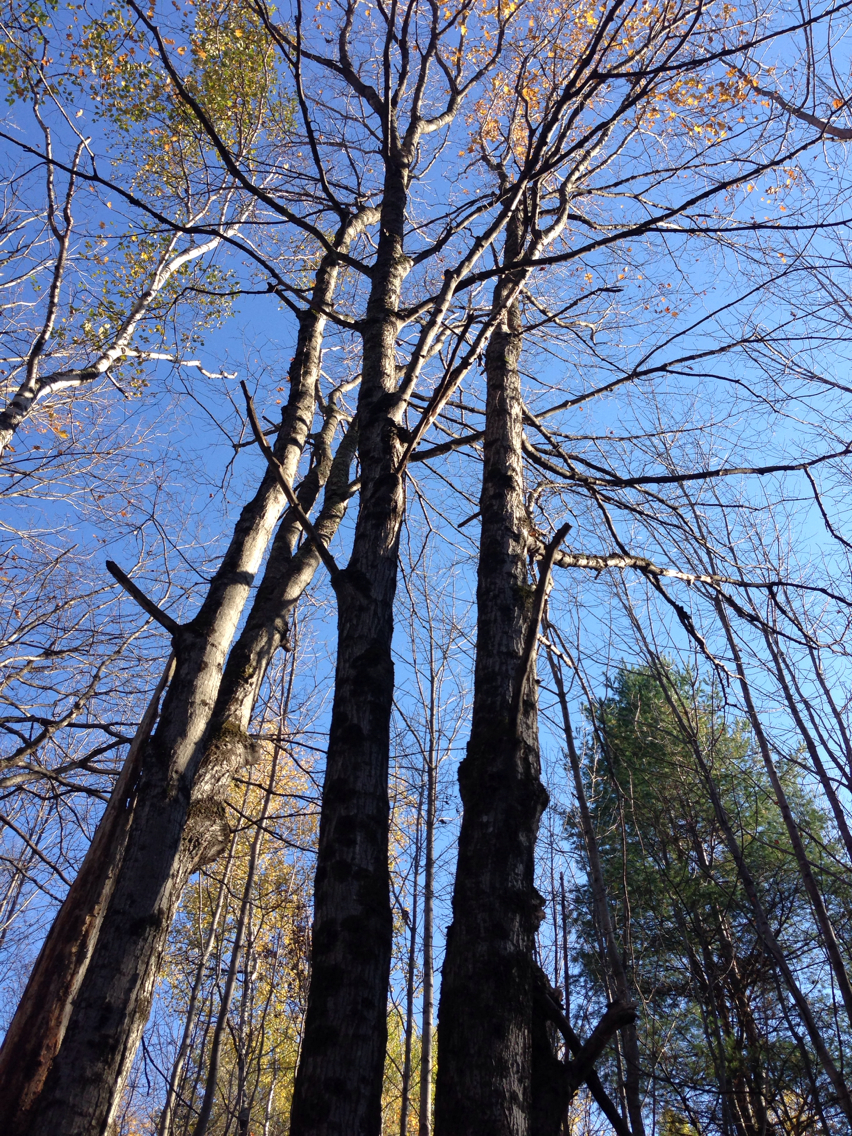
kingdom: Plantae
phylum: Tracheophyta
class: Magnoliopsida
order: Sapindales
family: Sapindaceae
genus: Acer
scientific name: Acer saccharum
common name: Sugar maple
